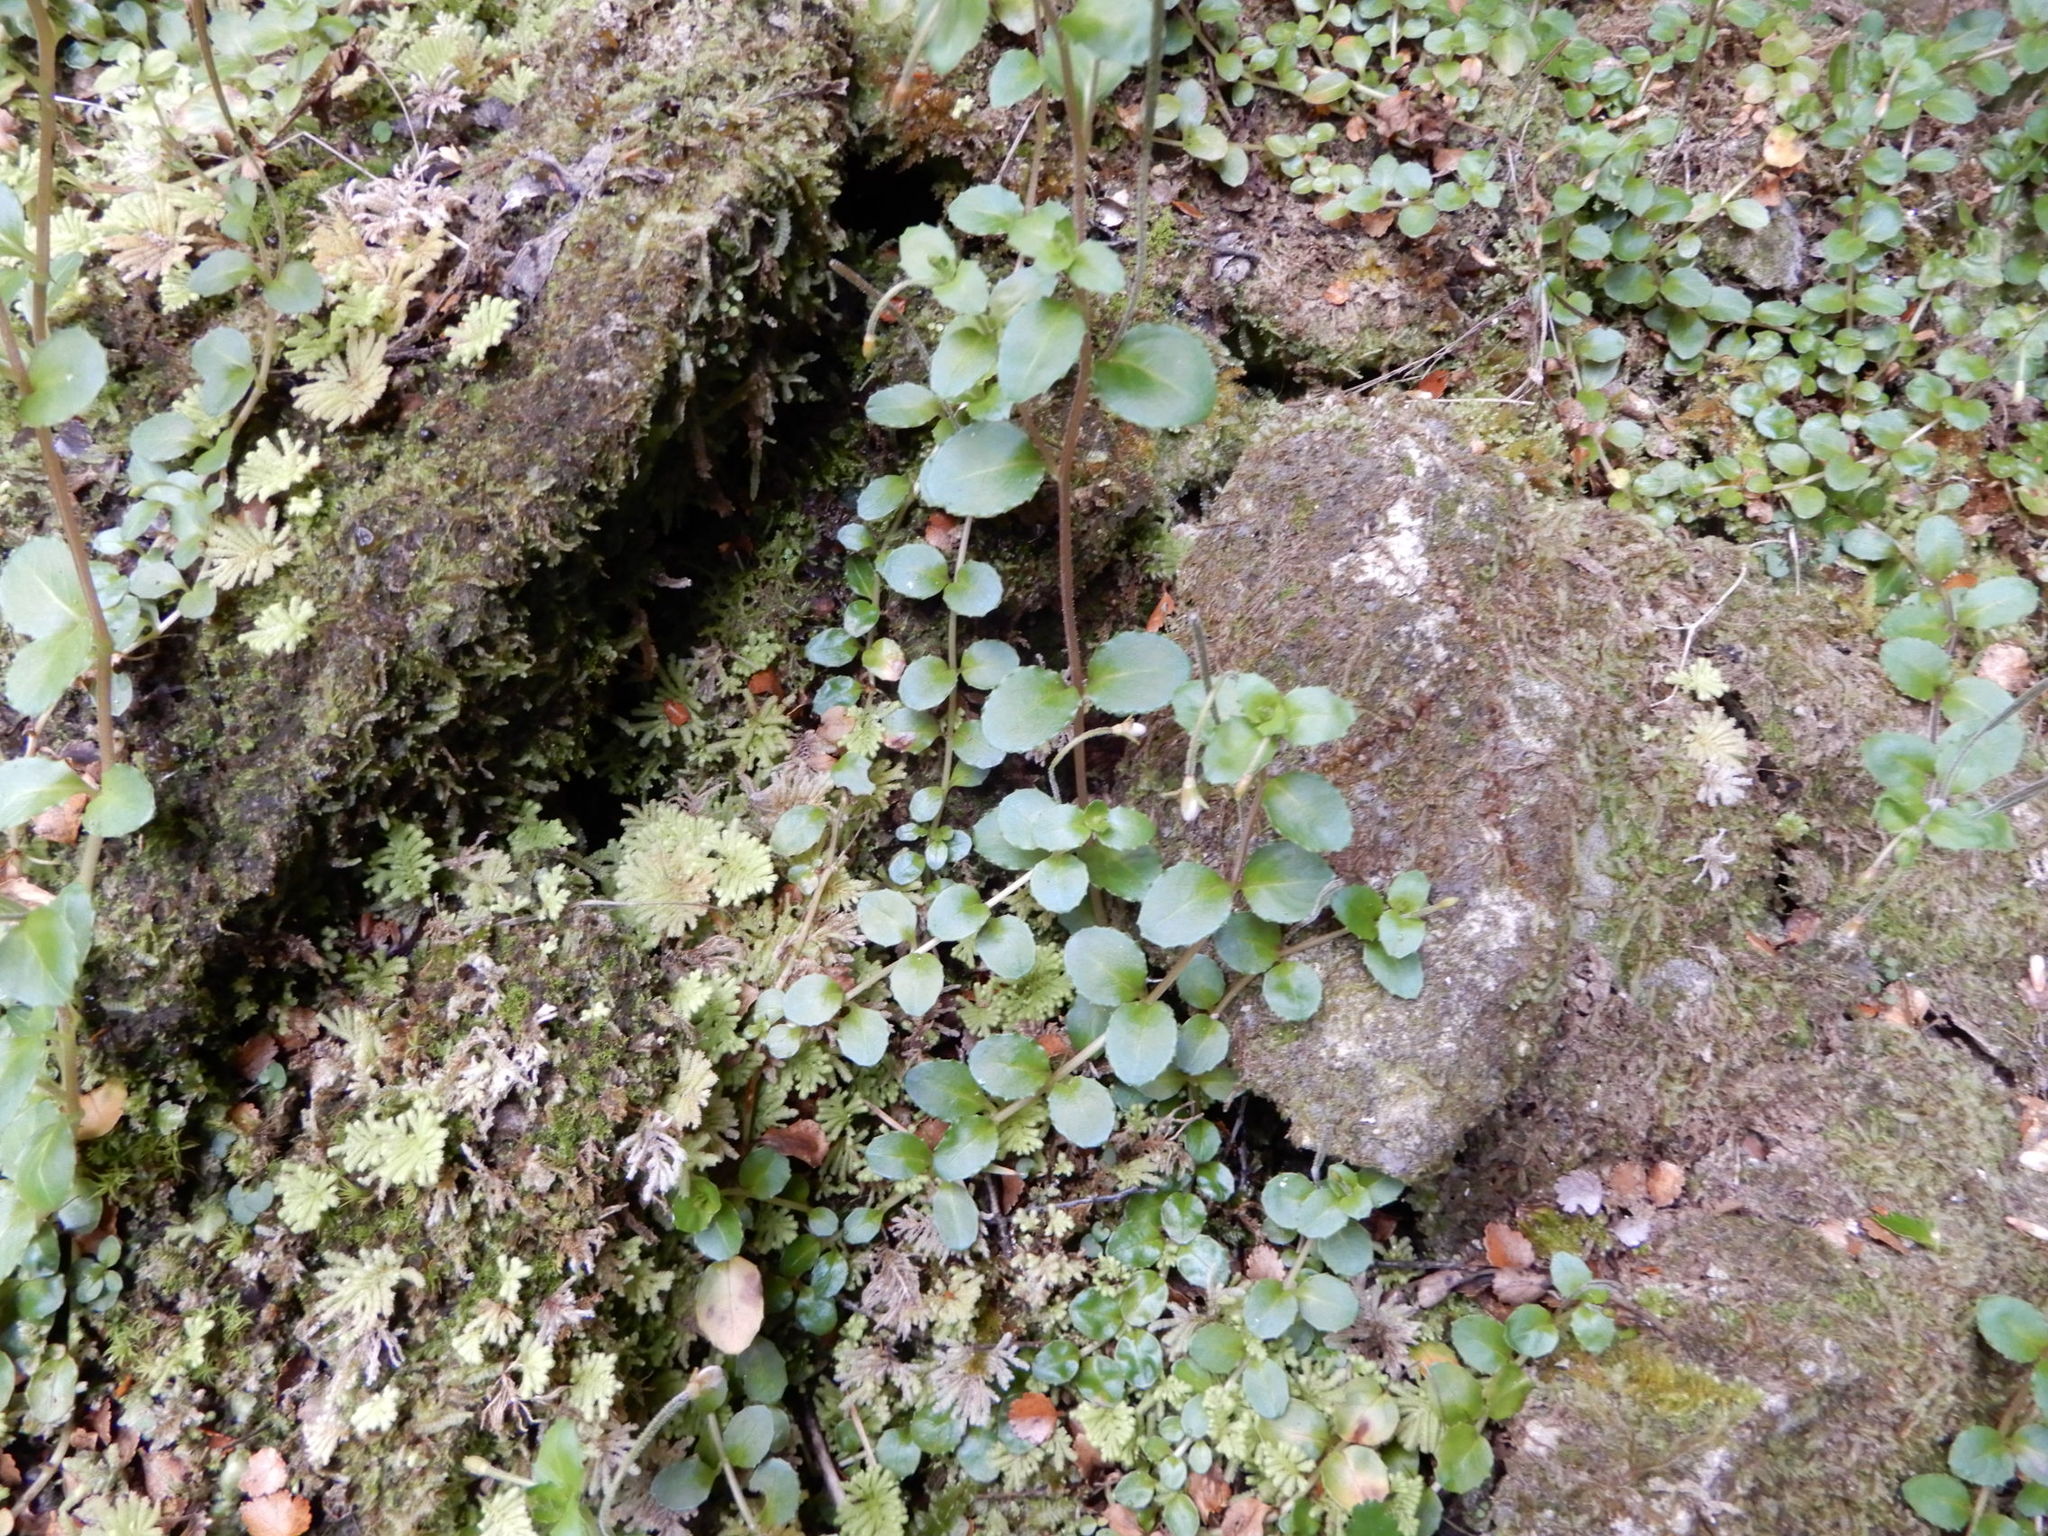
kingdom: Plantae
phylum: Tracheophyta
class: Magnoliopsida
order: Myrtales
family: Onagraceae
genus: Epilobium
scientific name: Epilobium rotundifolium
